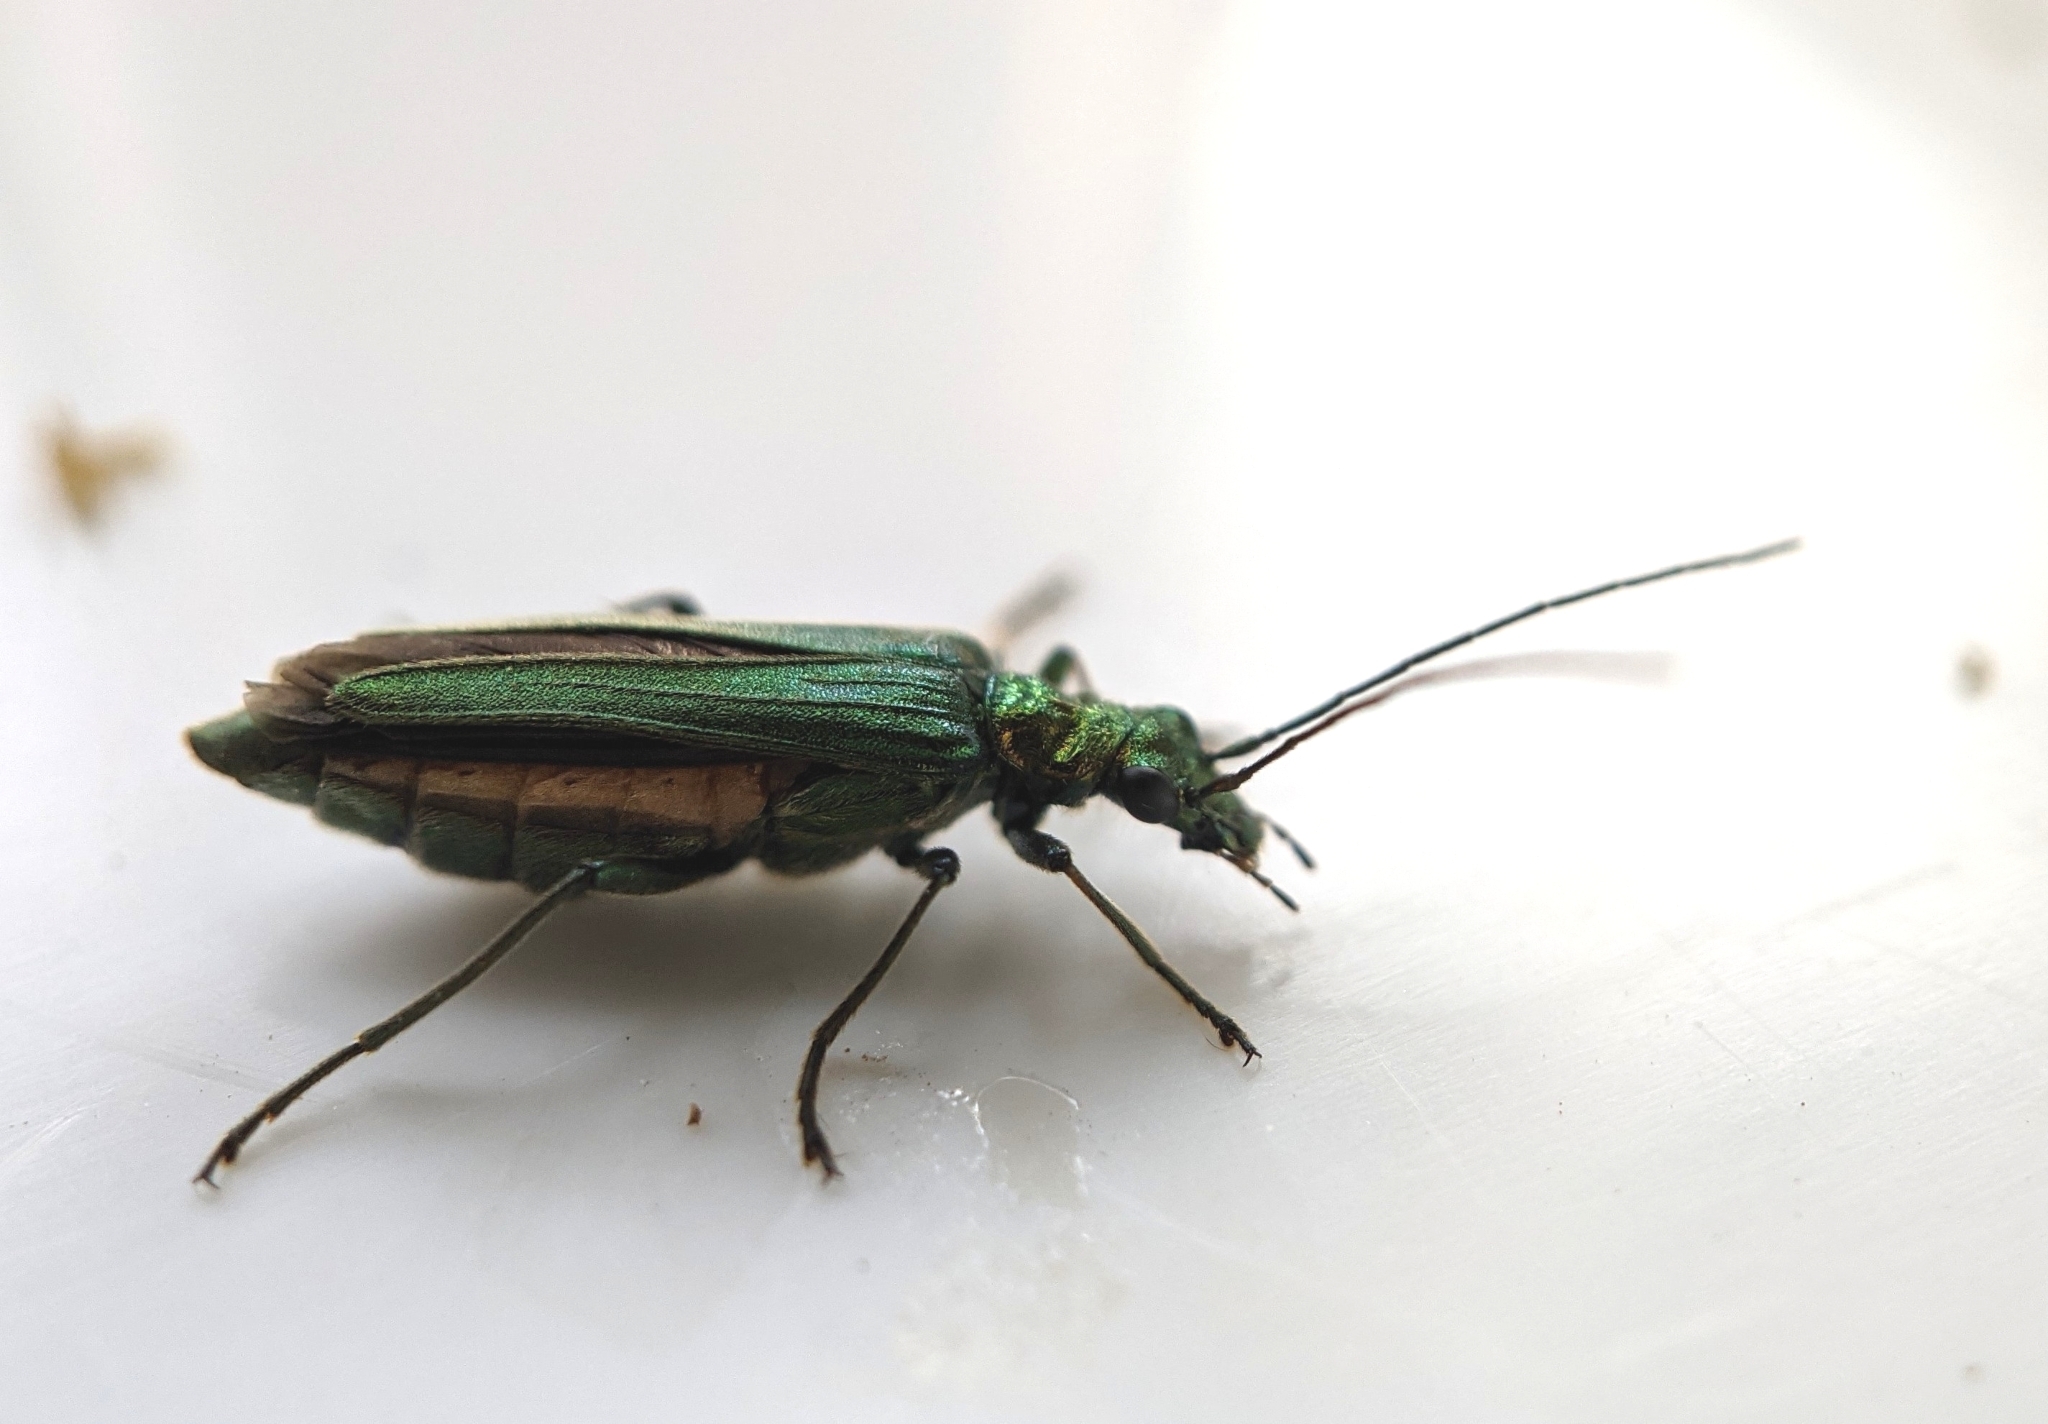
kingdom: Animalia
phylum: Arthropoda
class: Insecta
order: Coleoptera
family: Oedemeridae
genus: Oedemera
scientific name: Oedemera nobilis
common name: Swollen-thighed beetle
